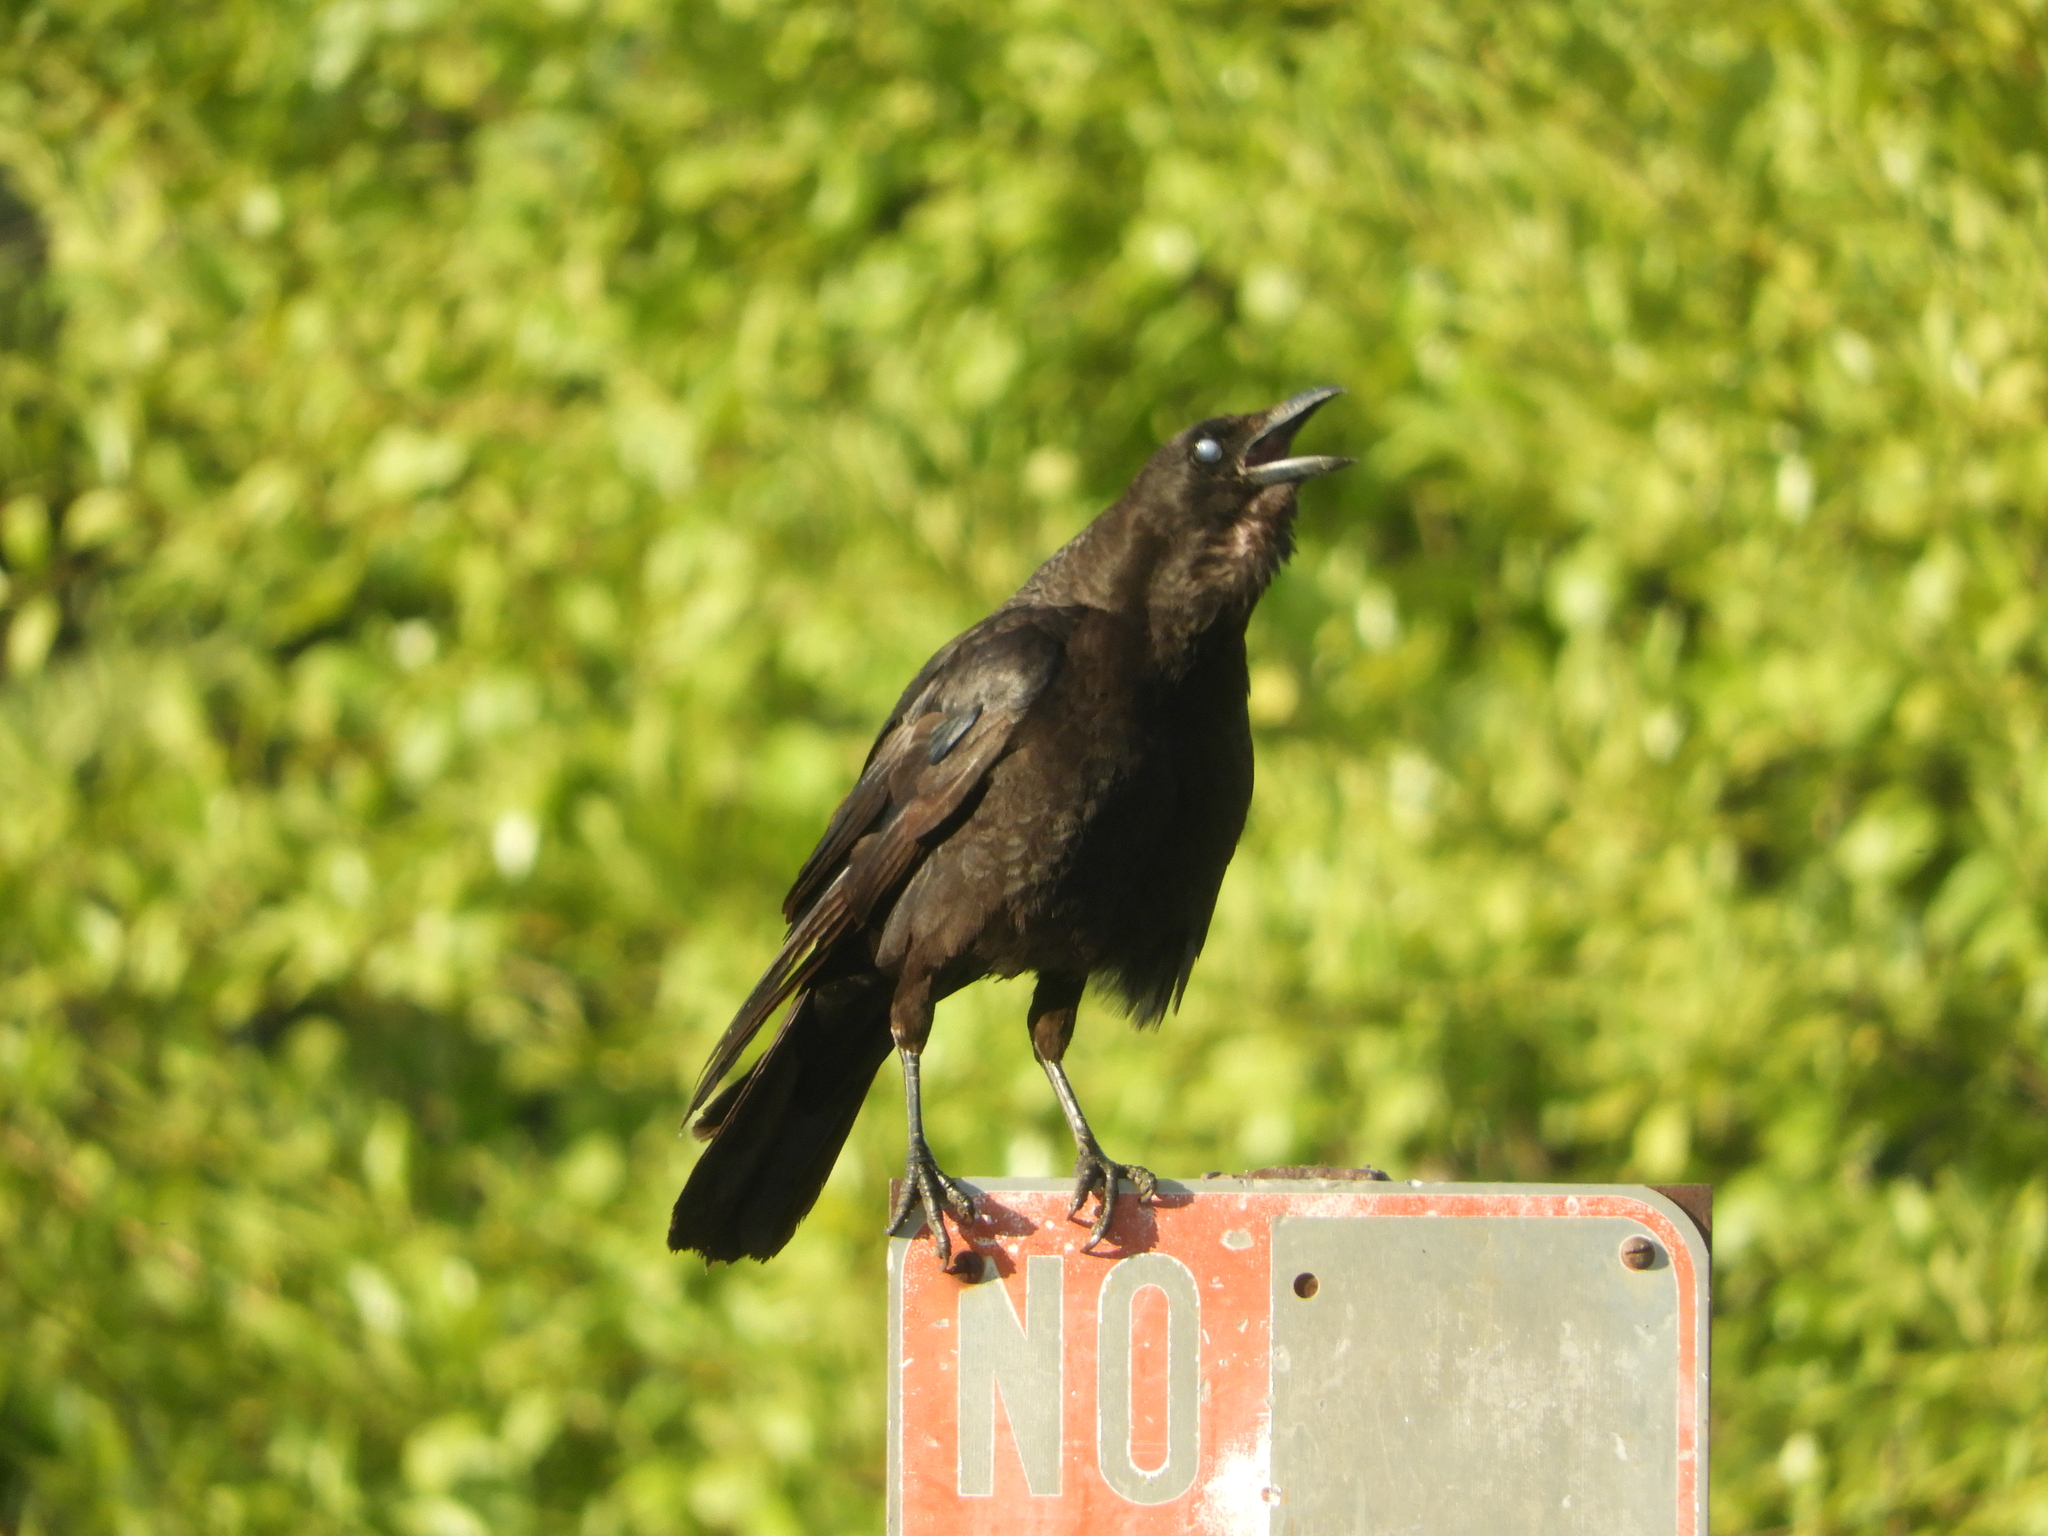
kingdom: Animalia
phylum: Chordata
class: Aves
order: Passeriformes
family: Corvidae
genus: Corvus
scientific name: Corvus brachyrhynchos
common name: American crow
